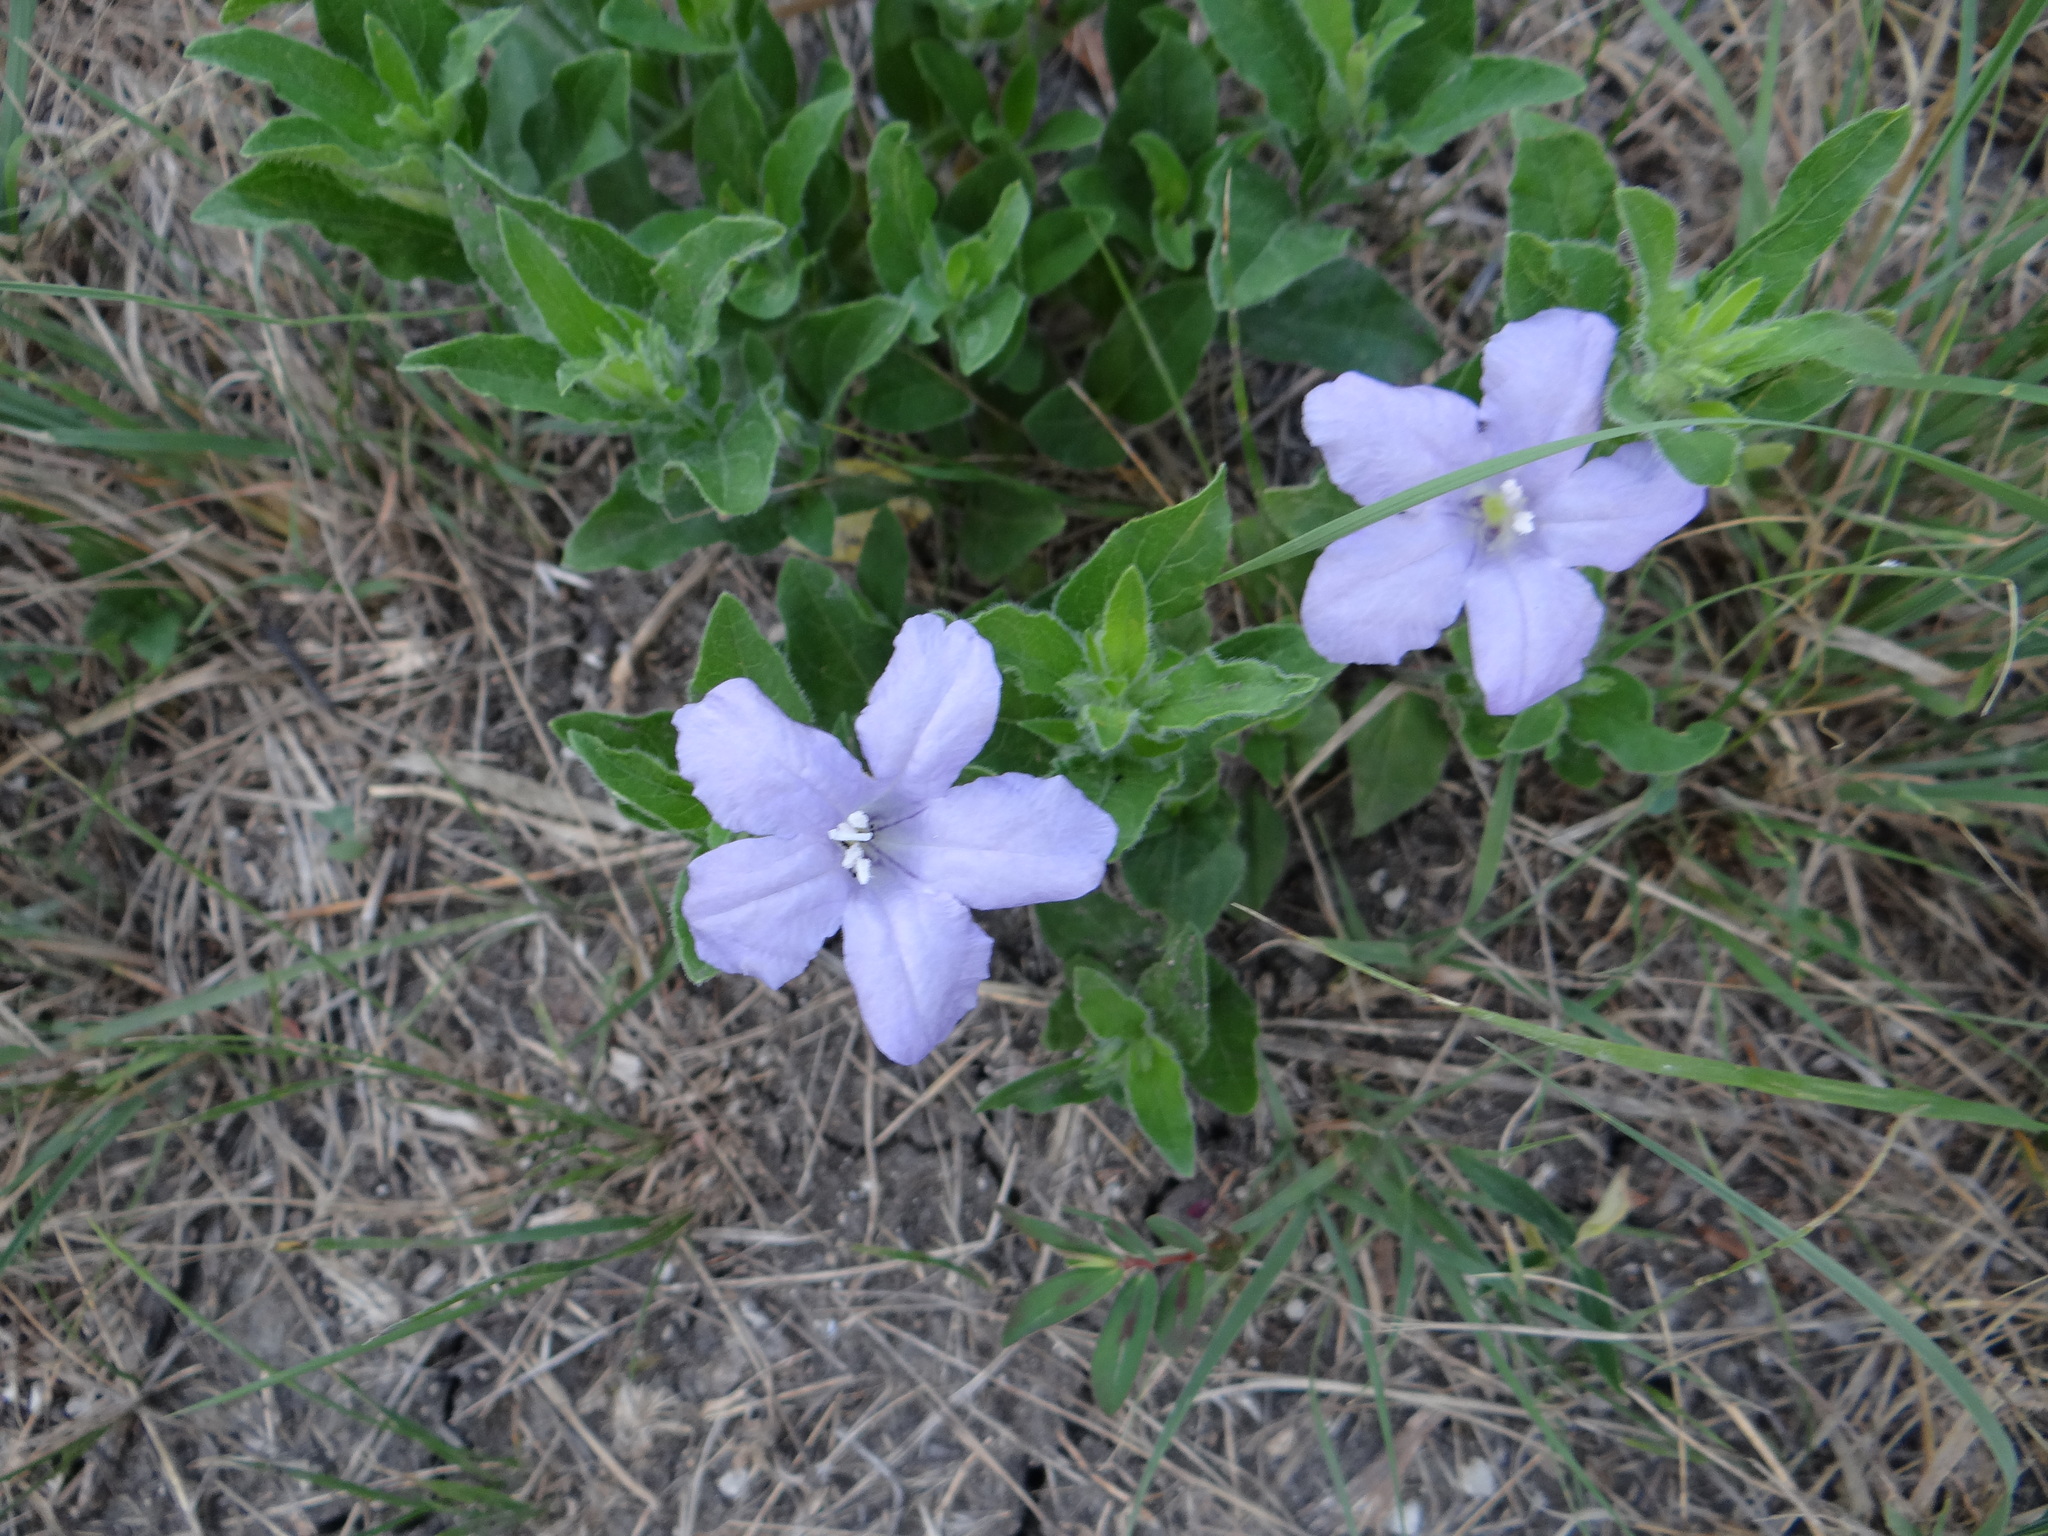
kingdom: Plantae
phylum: Tracheophyta
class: Magnoliopsida
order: Lamiales
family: Acanthaceae
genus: Ruellia
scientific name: Ruellia humilis
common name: Fringe-leaf ruellia
